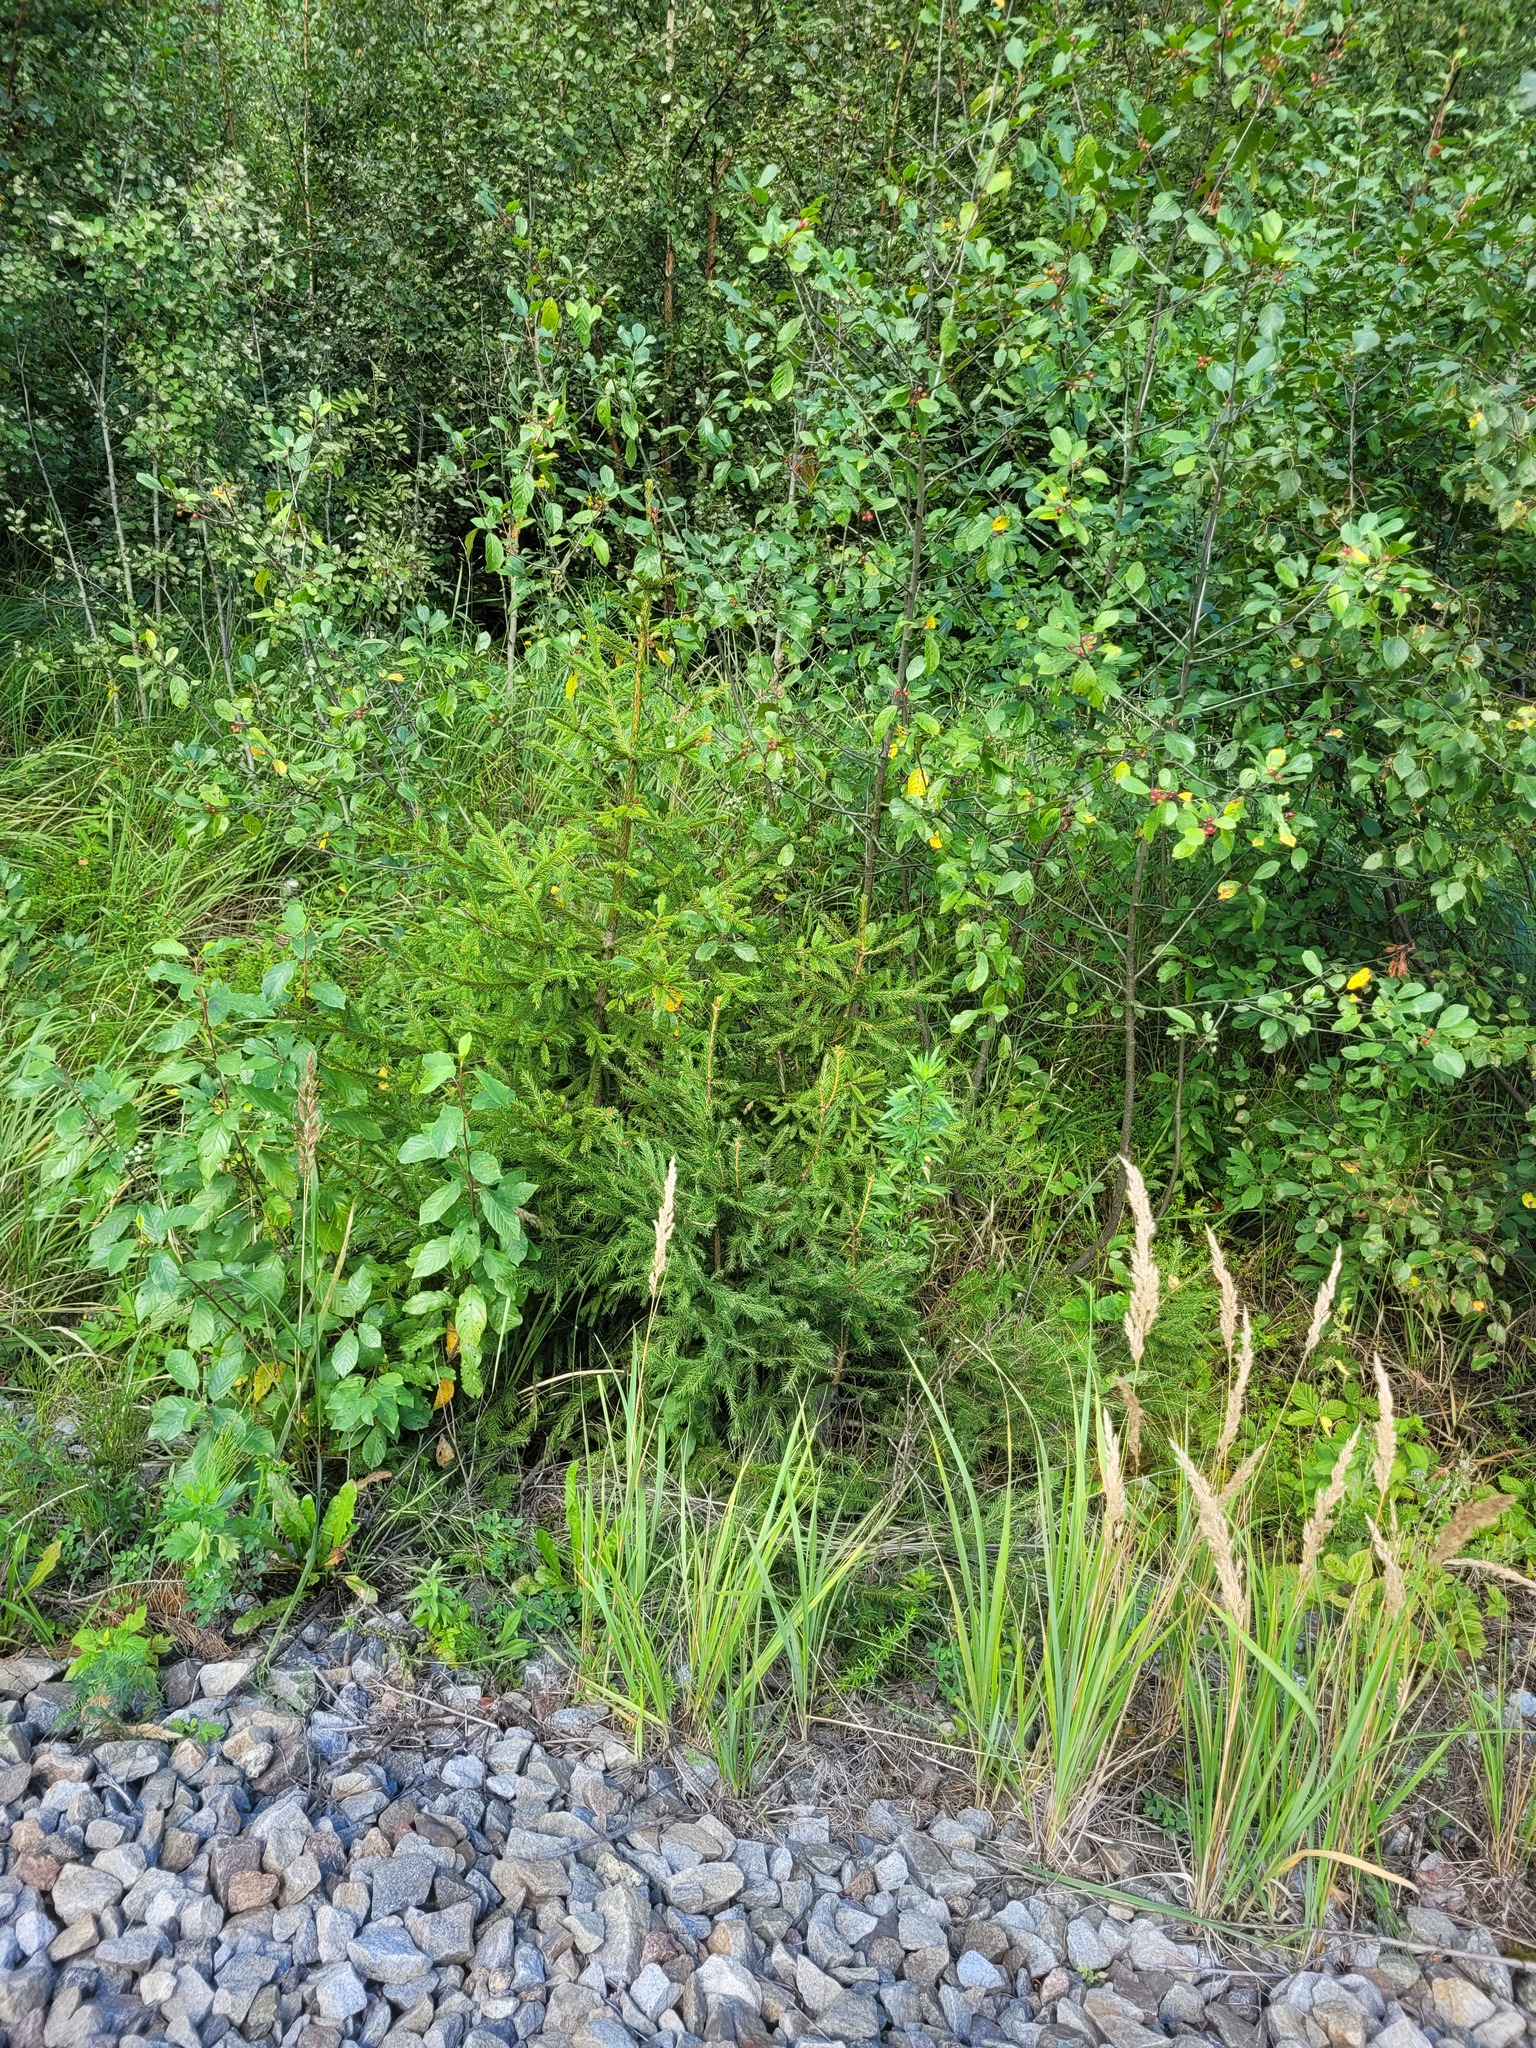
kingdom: Plantae
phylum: Tracheophyta
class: Pinopsida
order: Pinales
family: Pinaceae
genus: Picea
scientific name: Picea abies
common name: Norway spruce
